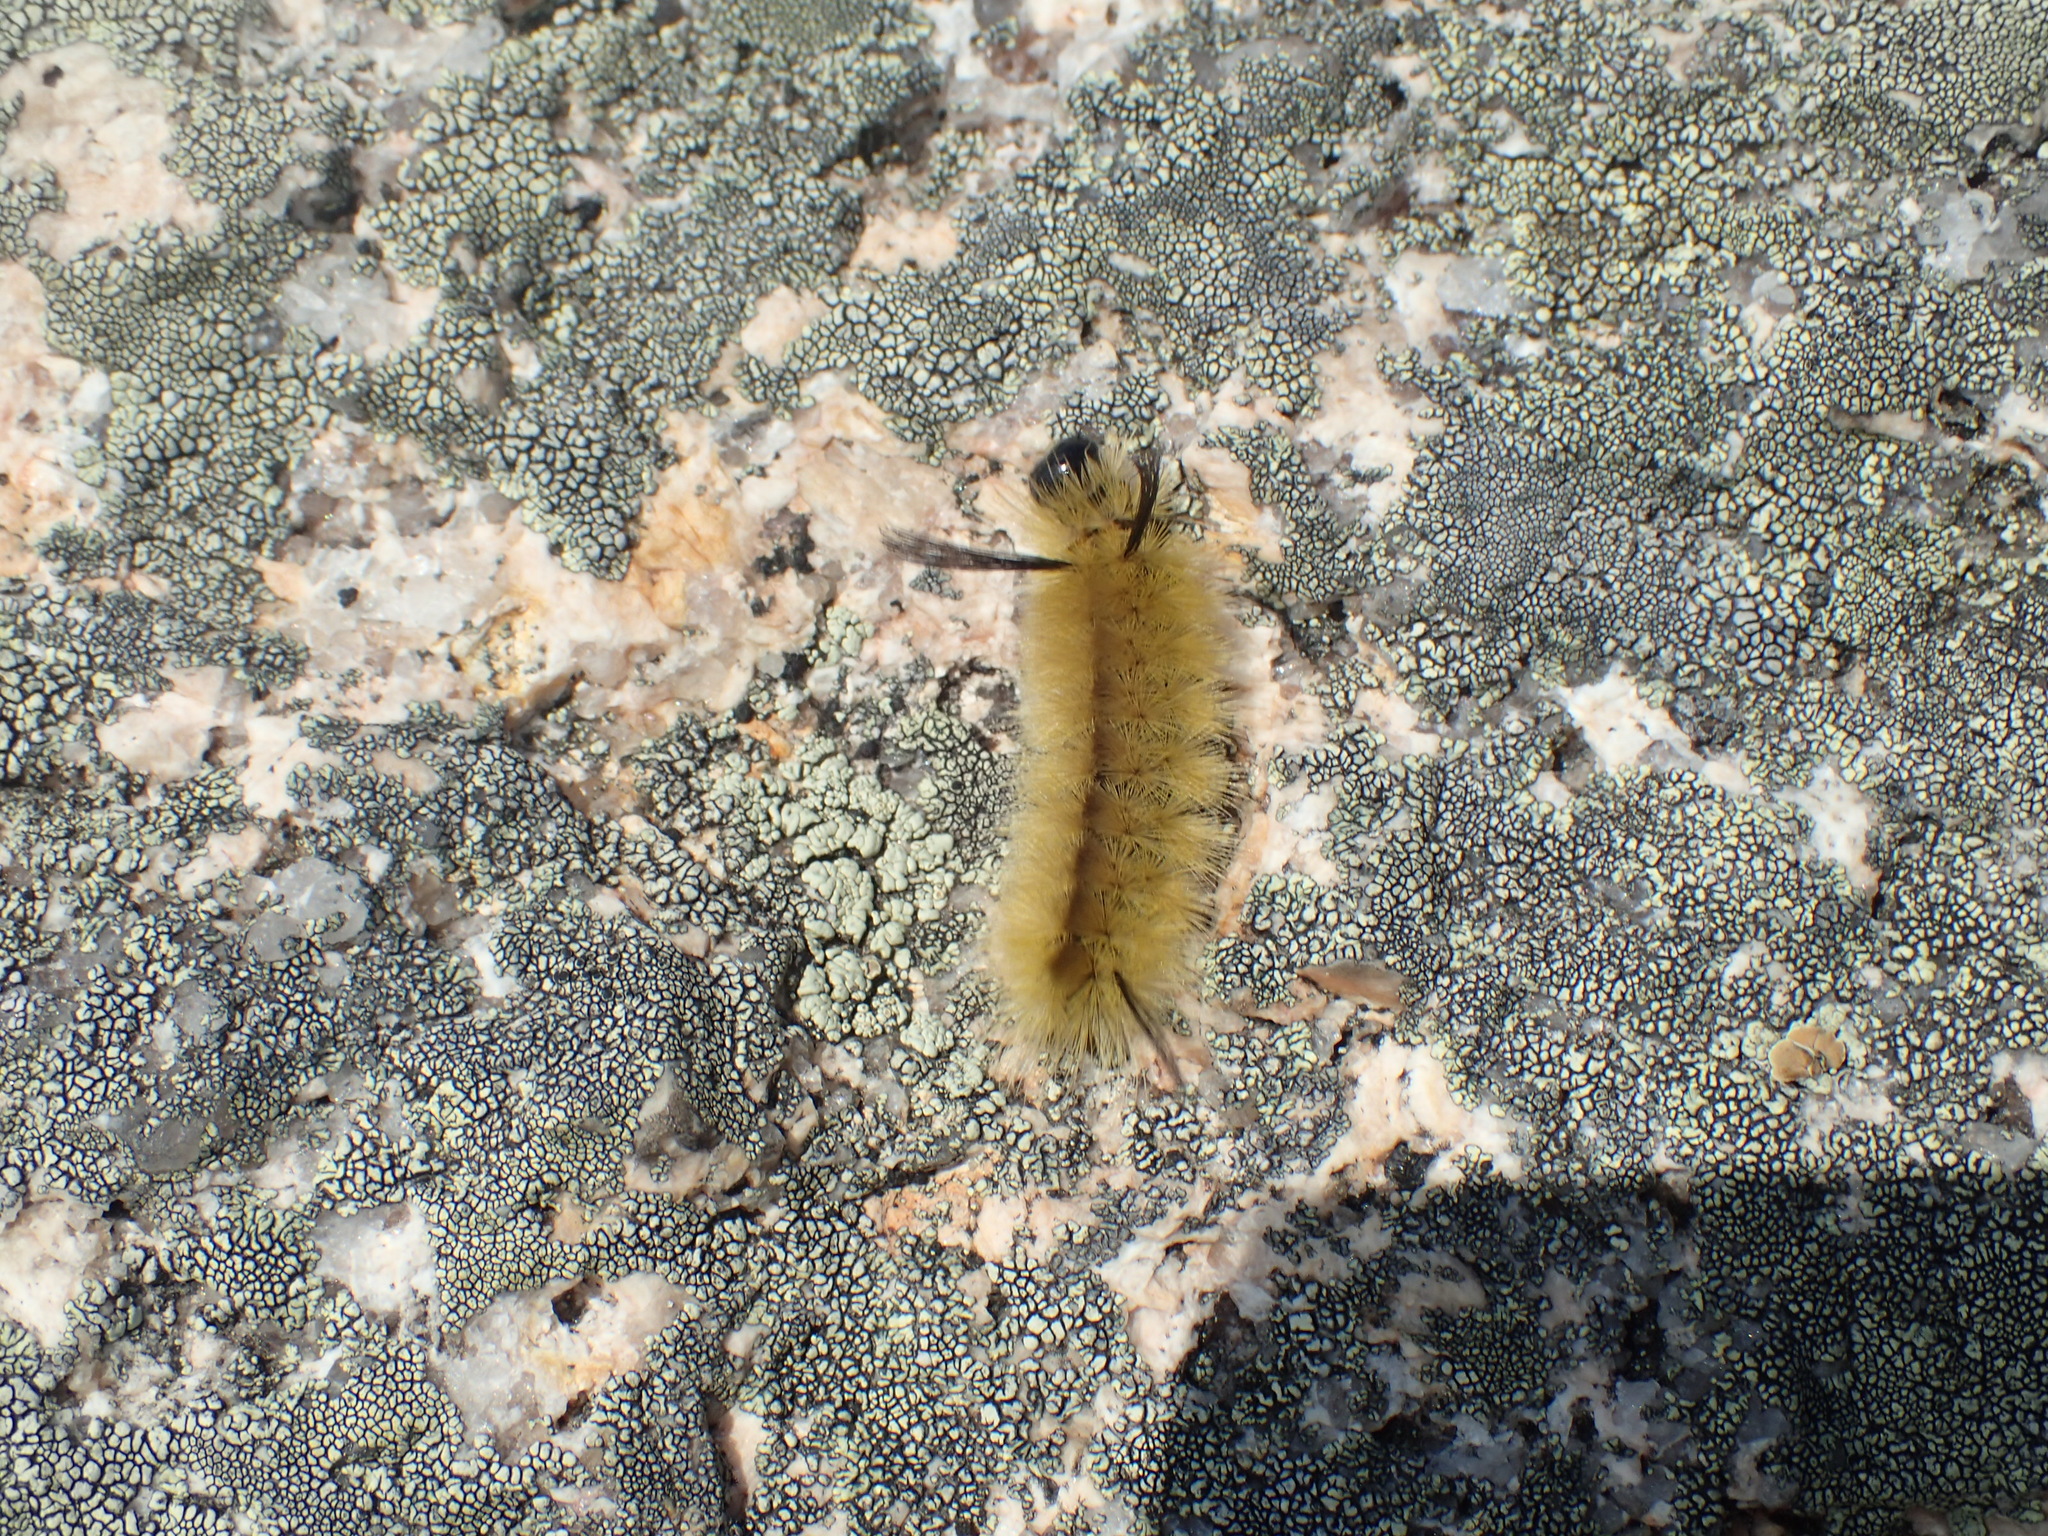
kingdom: Animalia
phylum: Arthropoda
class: Insecta
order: Lepidoptera
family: Erebidae
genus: Halysidota
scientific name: Halysidota tessellaris
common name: Banded tussock moth
